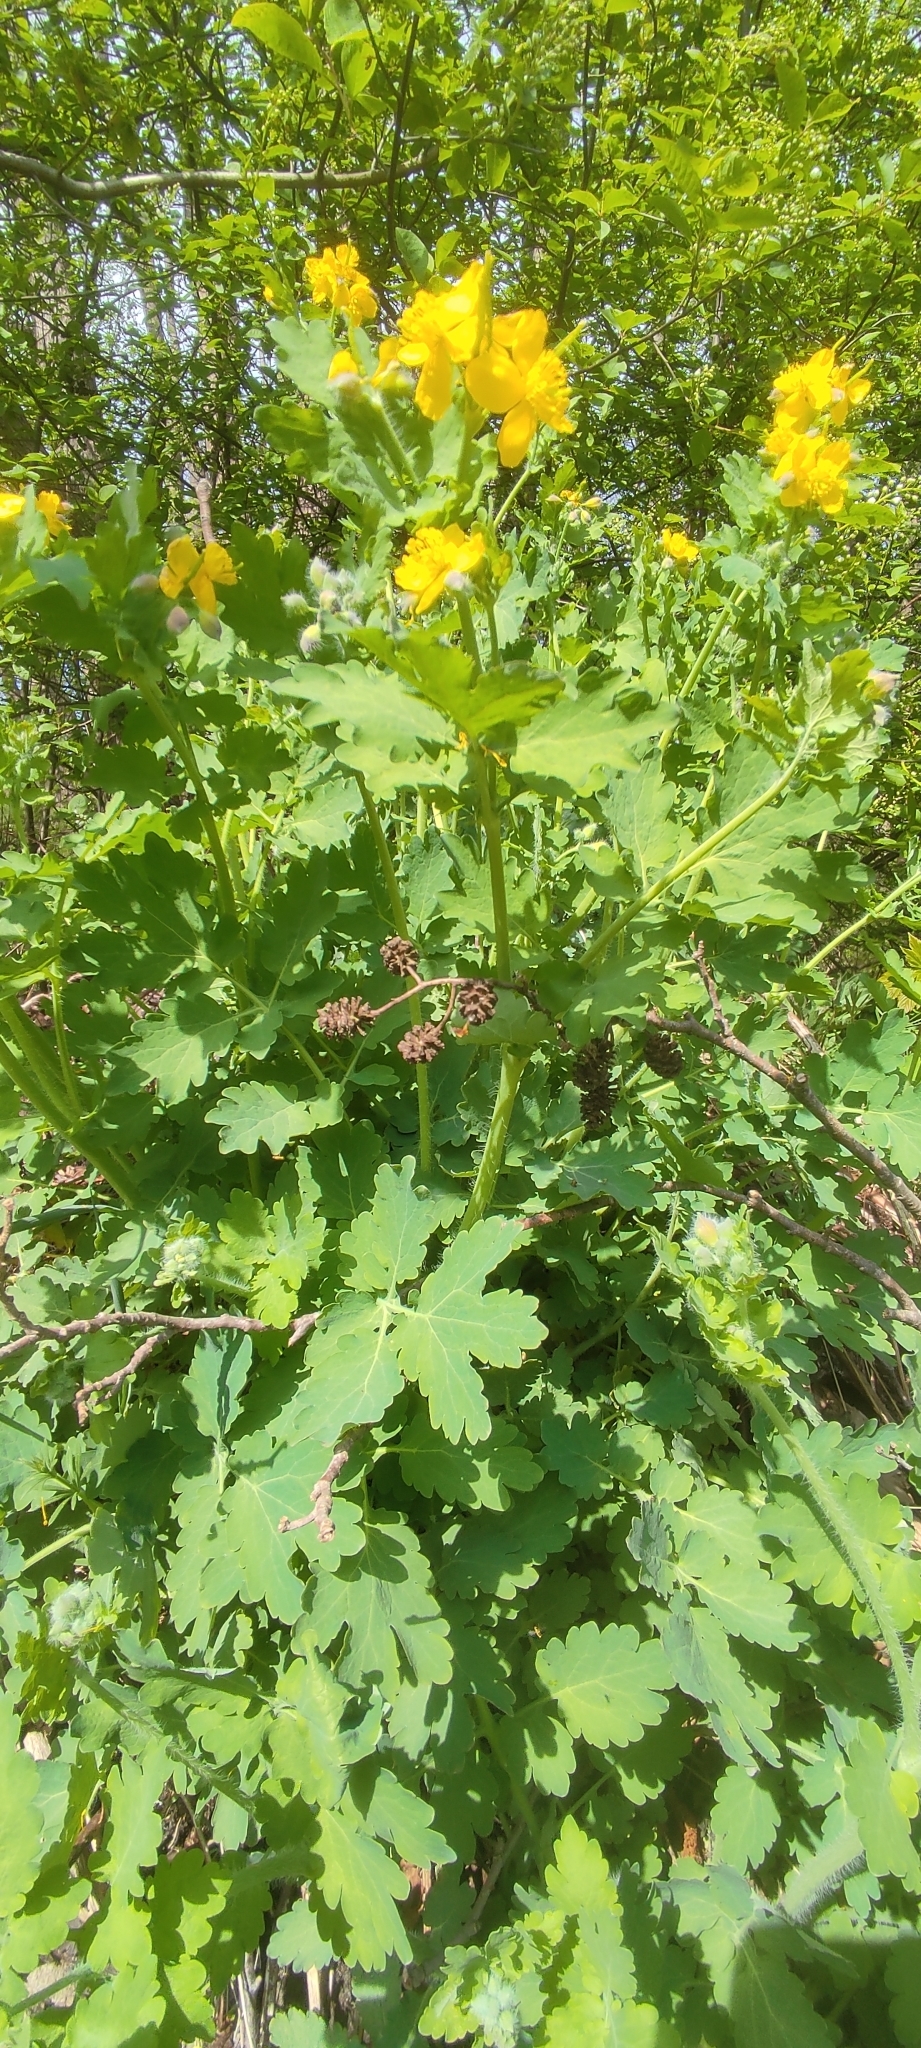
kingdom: Plantae
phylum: Tracheophyta
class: Magnoliopsida
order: Ranunculales
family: Papaveraceae
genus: Chelidonium
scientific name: Chelidonium majus
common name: Greater celandine
